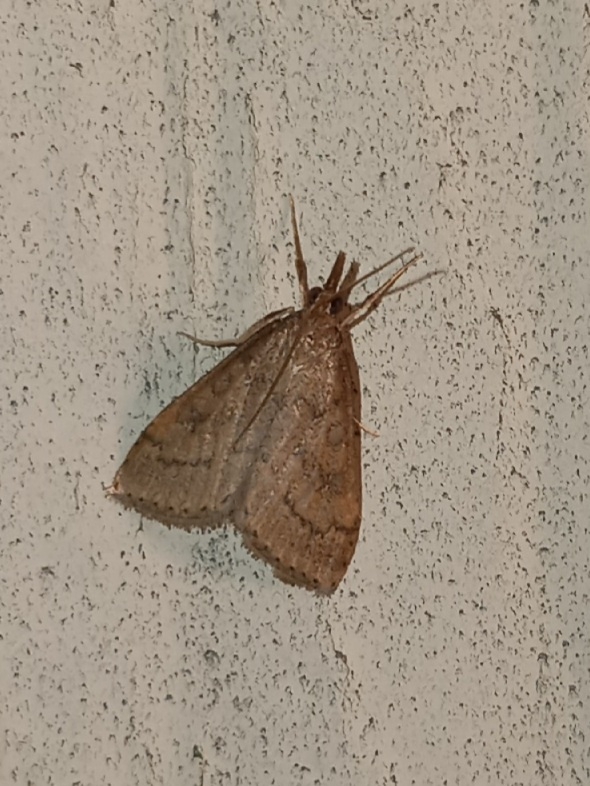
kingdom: Animalia
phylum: Arthropoda
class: Insecta
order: Lepidoptera
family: Crambidae
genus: Udea
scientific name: Udea rubigalis
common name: Celery leaftier moth
